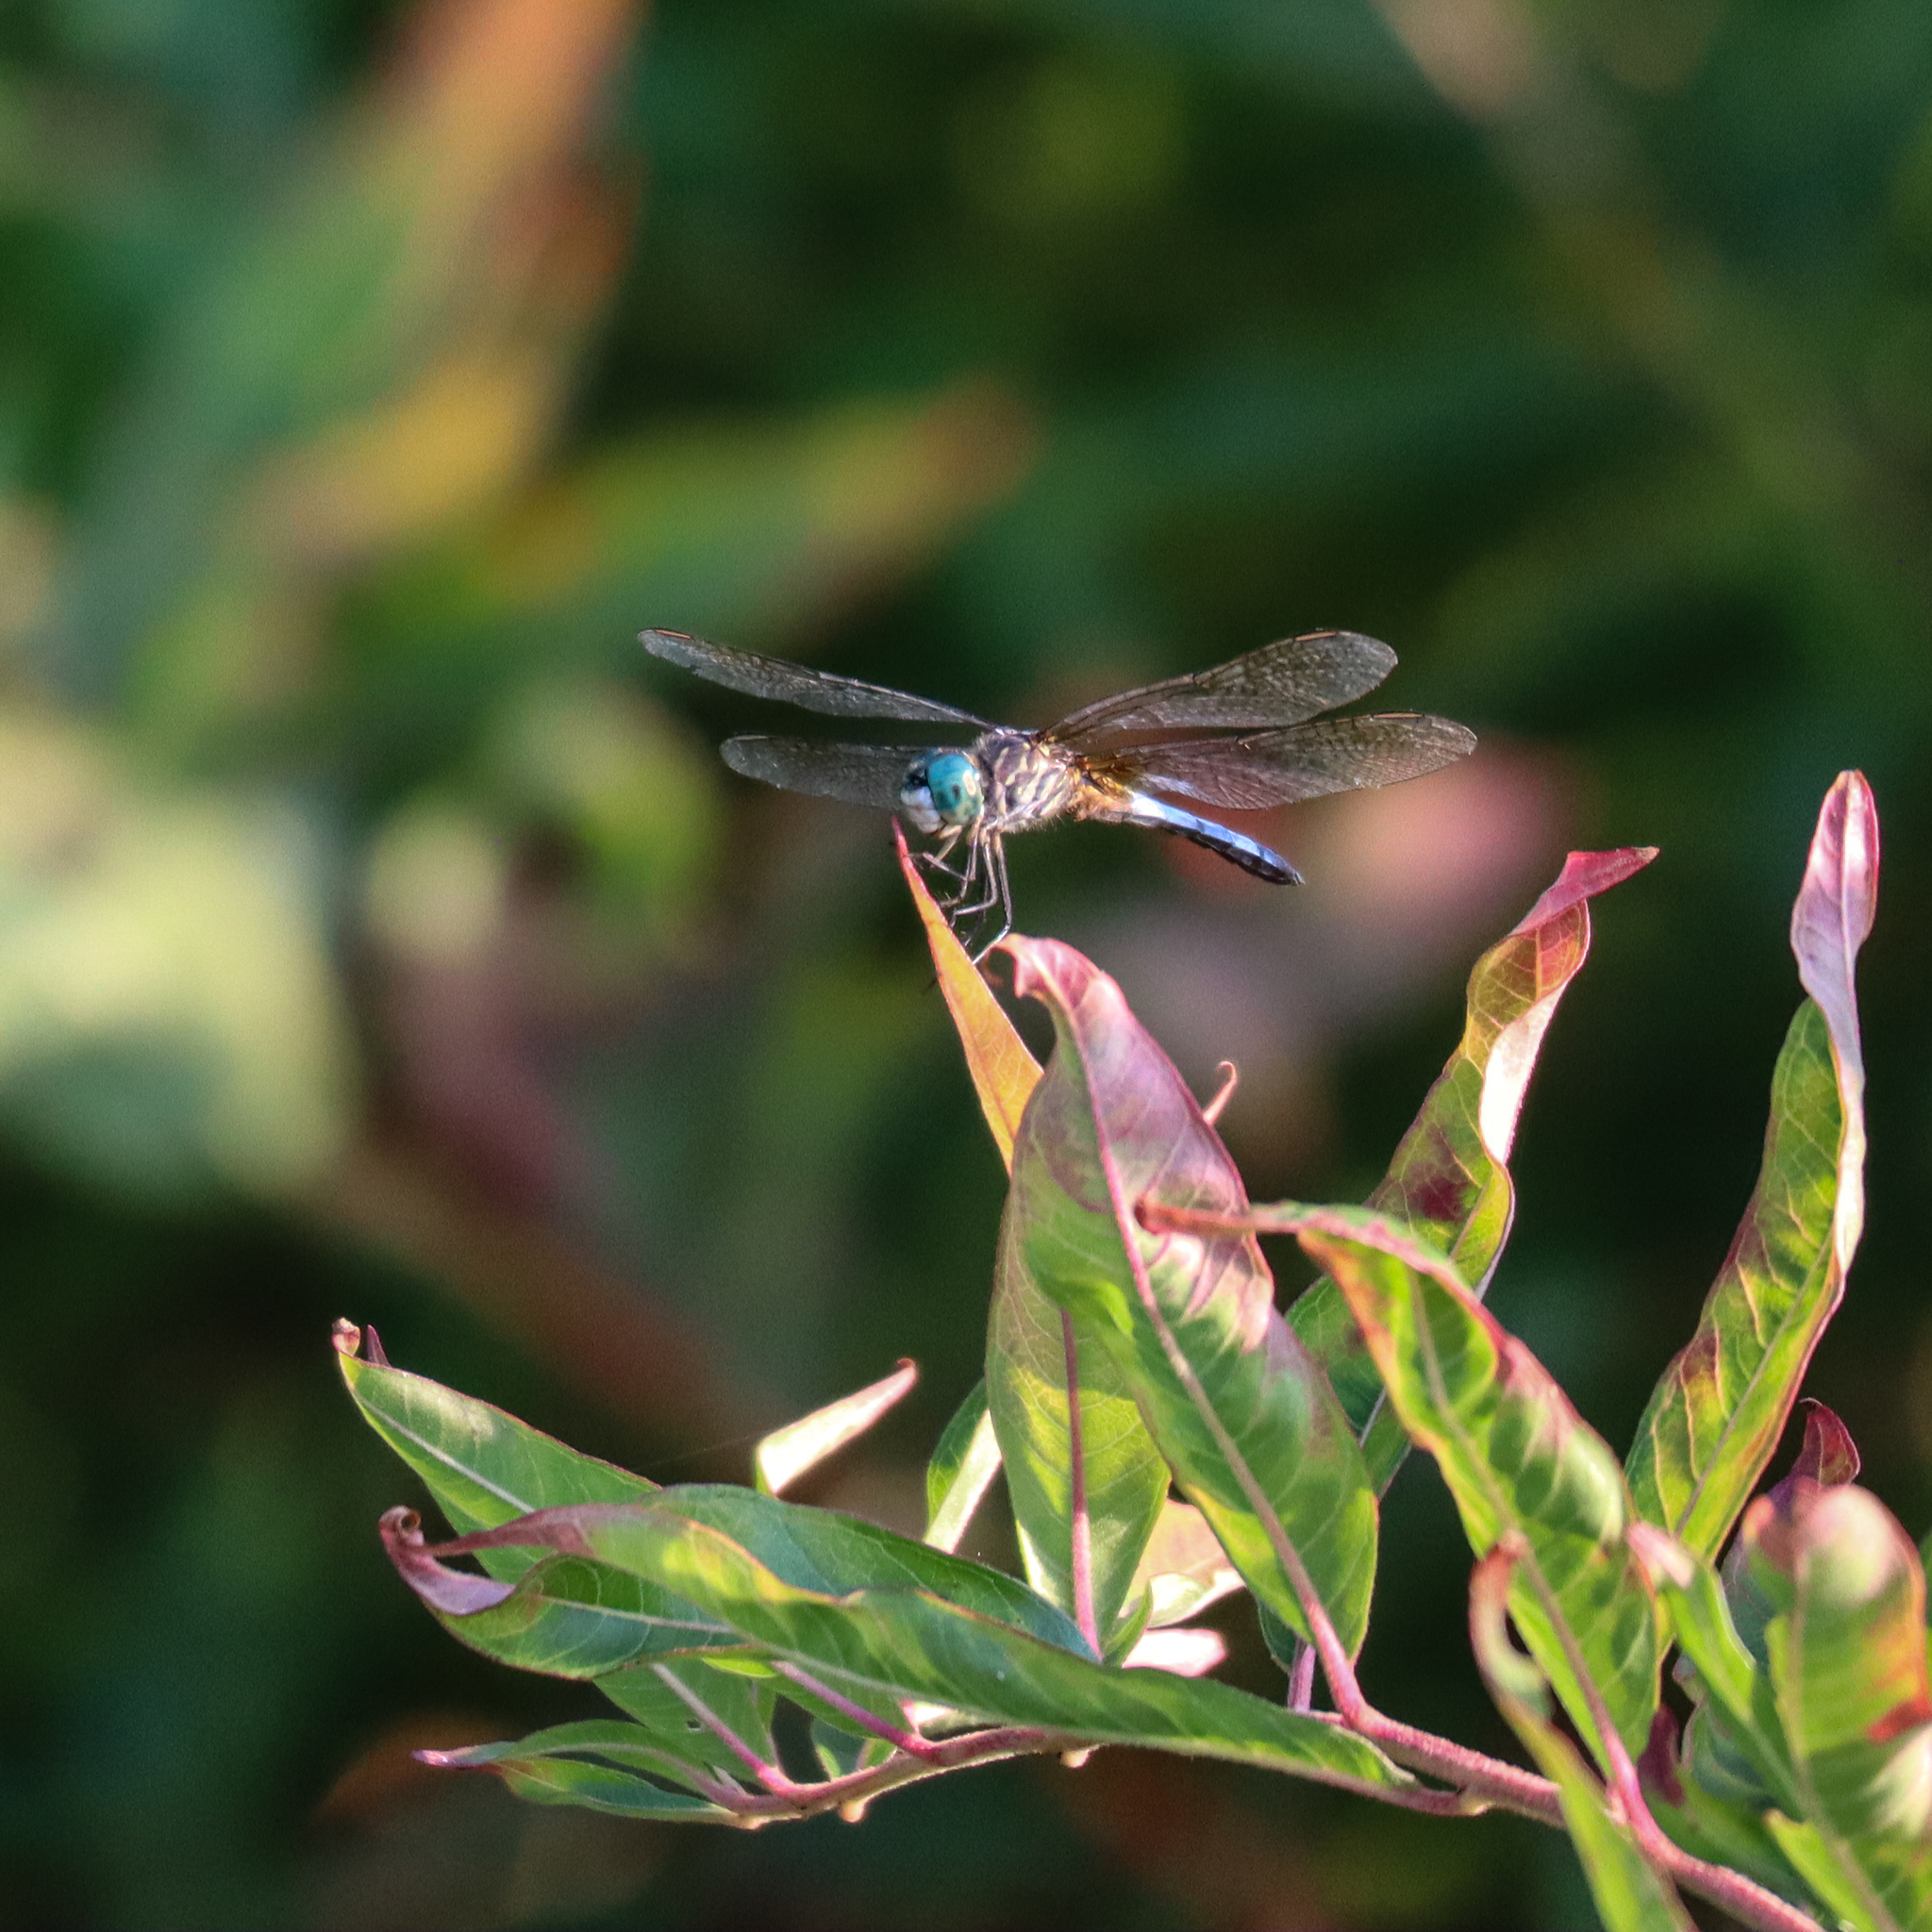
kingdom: Animalia
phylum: Arthropoda
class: Insecta
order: Odonata
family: Libellulidae
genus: Pachydiplax
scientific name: Pachydiplax longipennis
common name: Blue dasher
